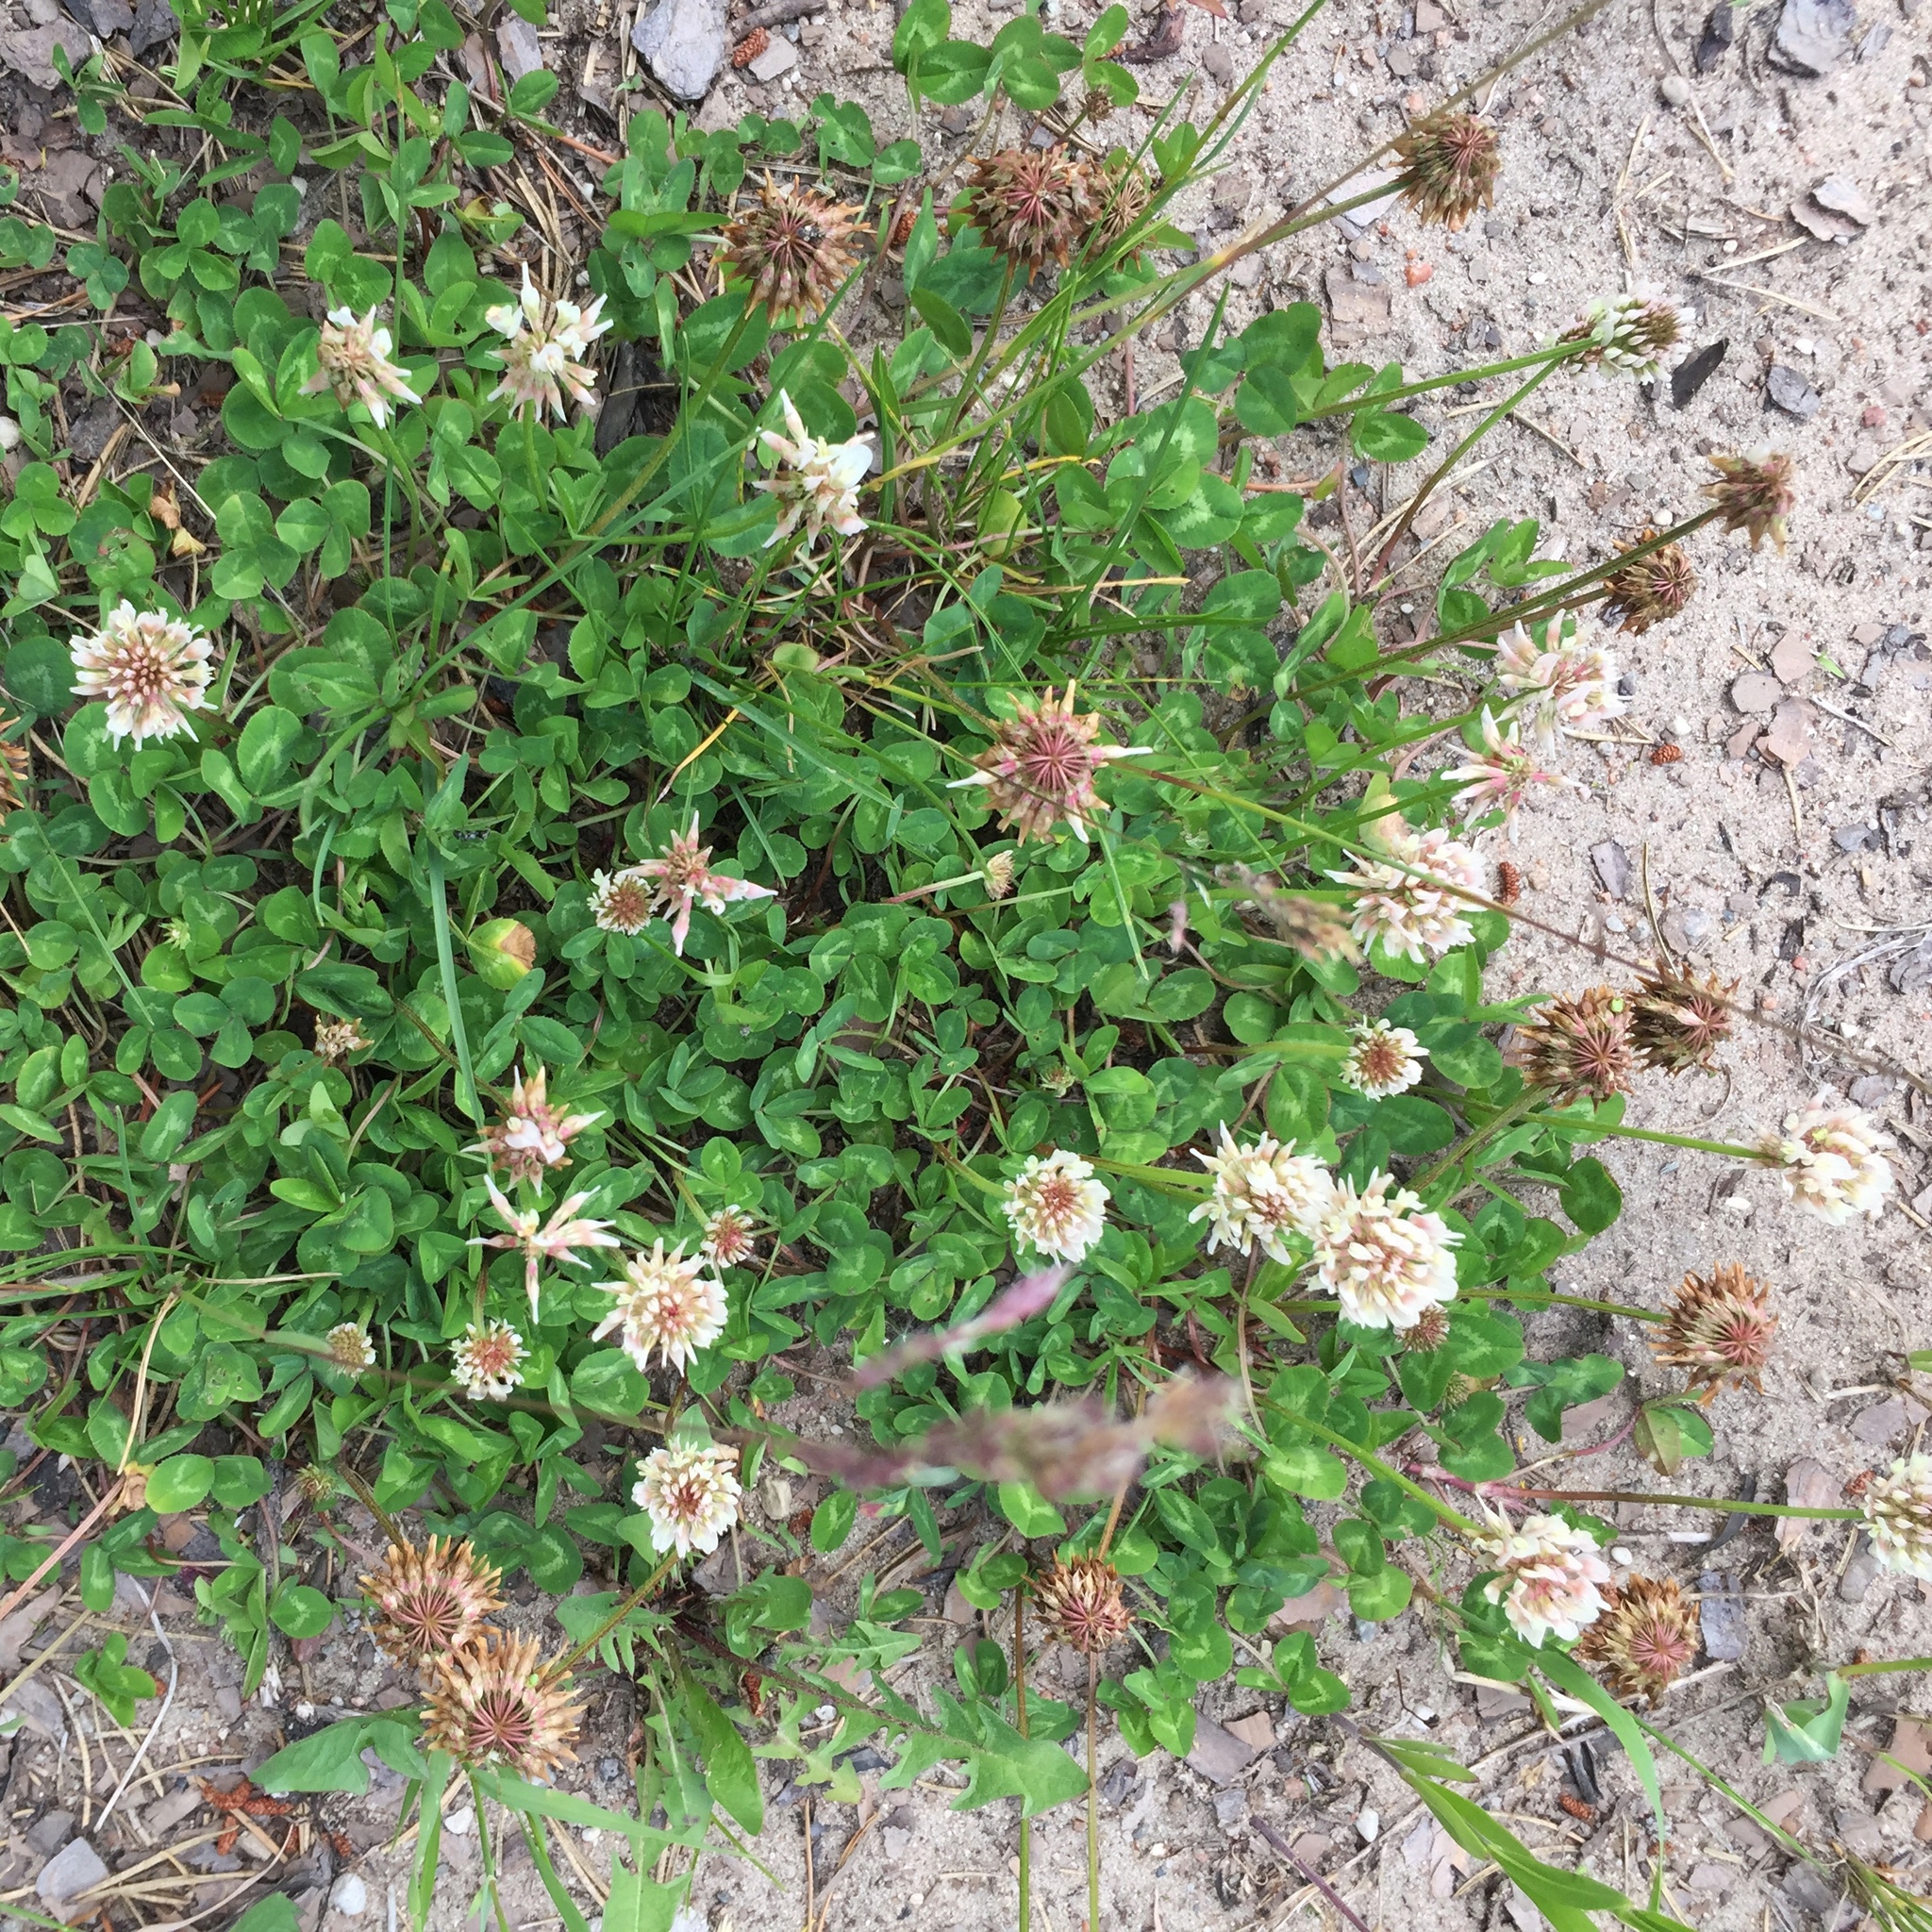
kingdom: Plantae
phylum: Tracheophyta
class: Magnoliopsida
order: Fabales
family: Fabaceae
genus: Trifolium
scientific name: Trifolium repens
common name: White clover
